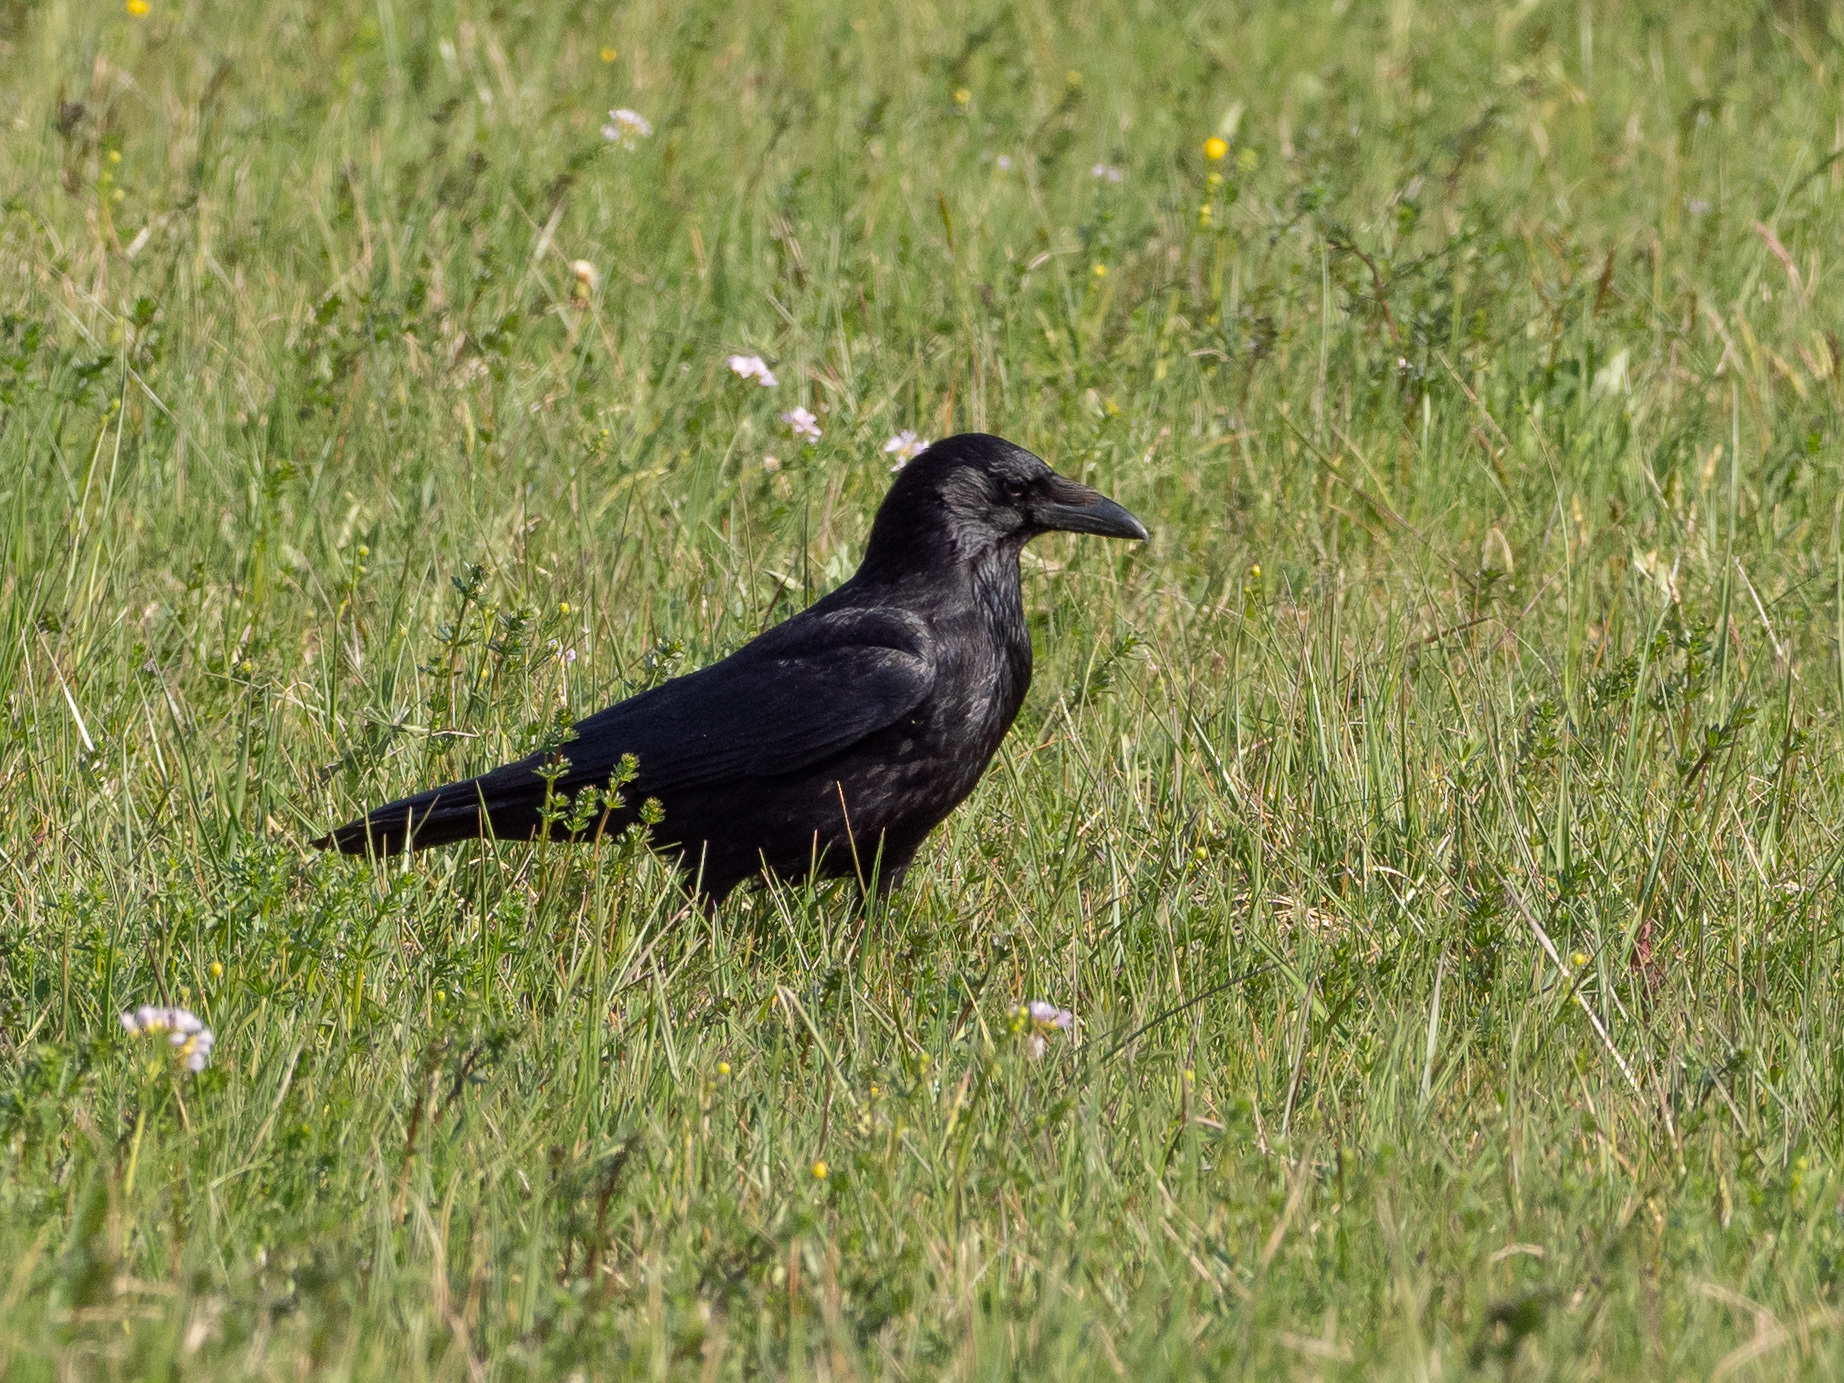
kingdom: Animalia
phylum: Chordata
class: Aves
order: Passeriformes
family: Corvidae
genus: Corvus
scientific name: Corvus corone
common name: Carrion crow
